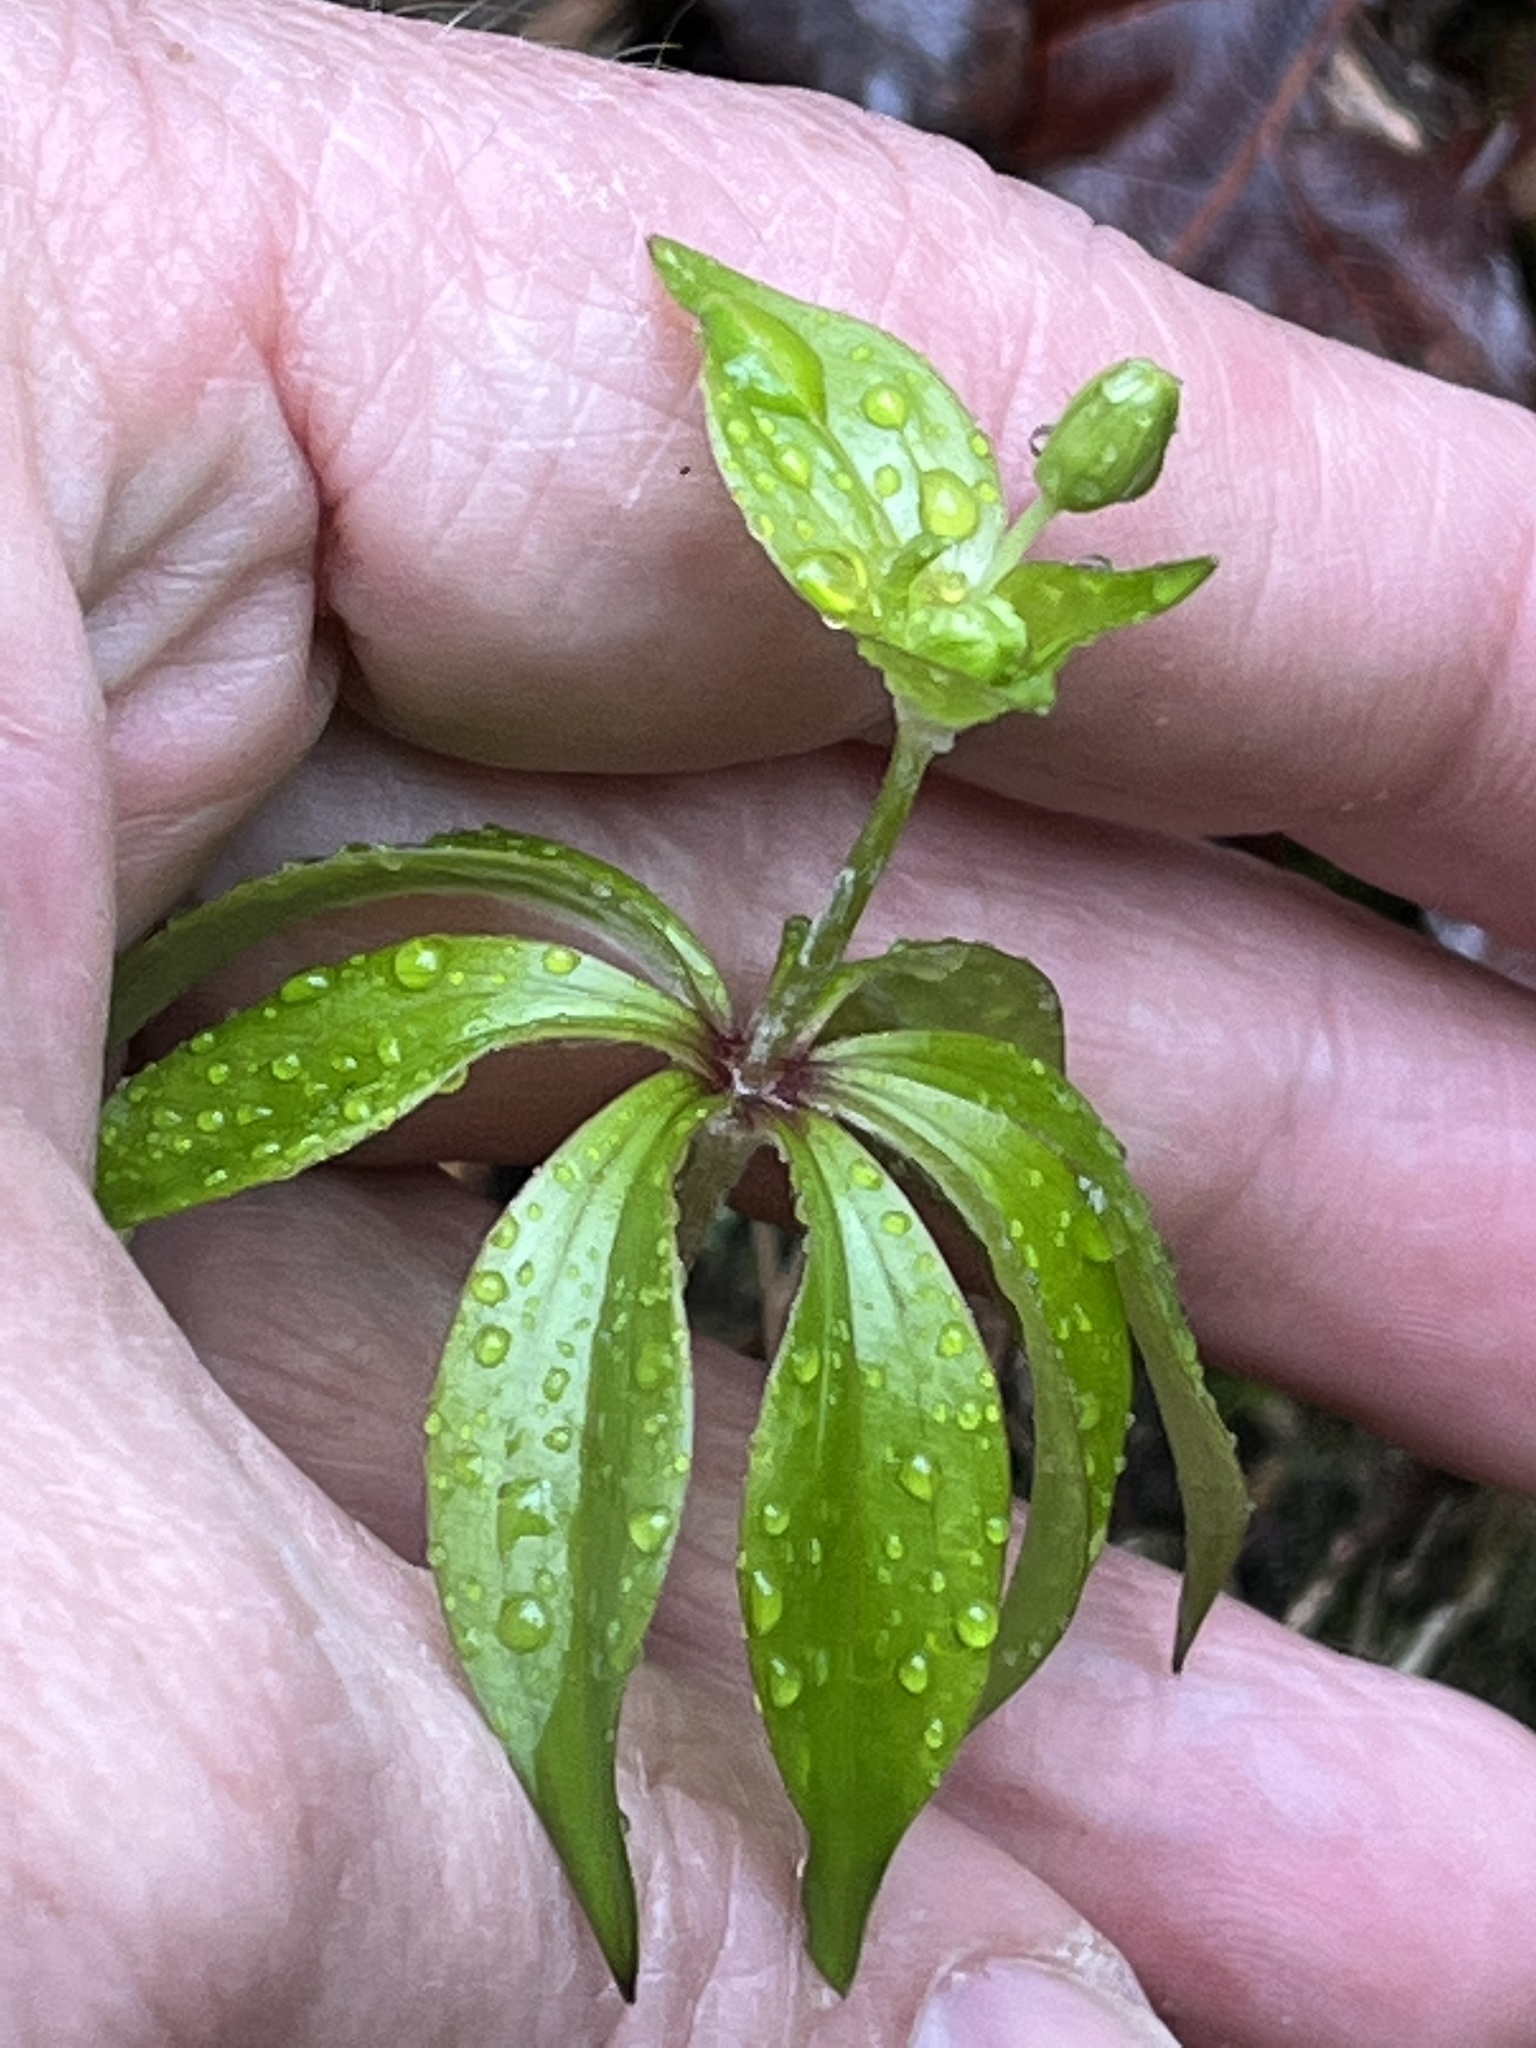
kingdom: Plantae
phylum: Tracheophyta
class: Liliopsida
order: Liliales
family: Liliaceae
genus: Medeola
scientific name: Medeola virginiana
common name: Indian cucumber-root
